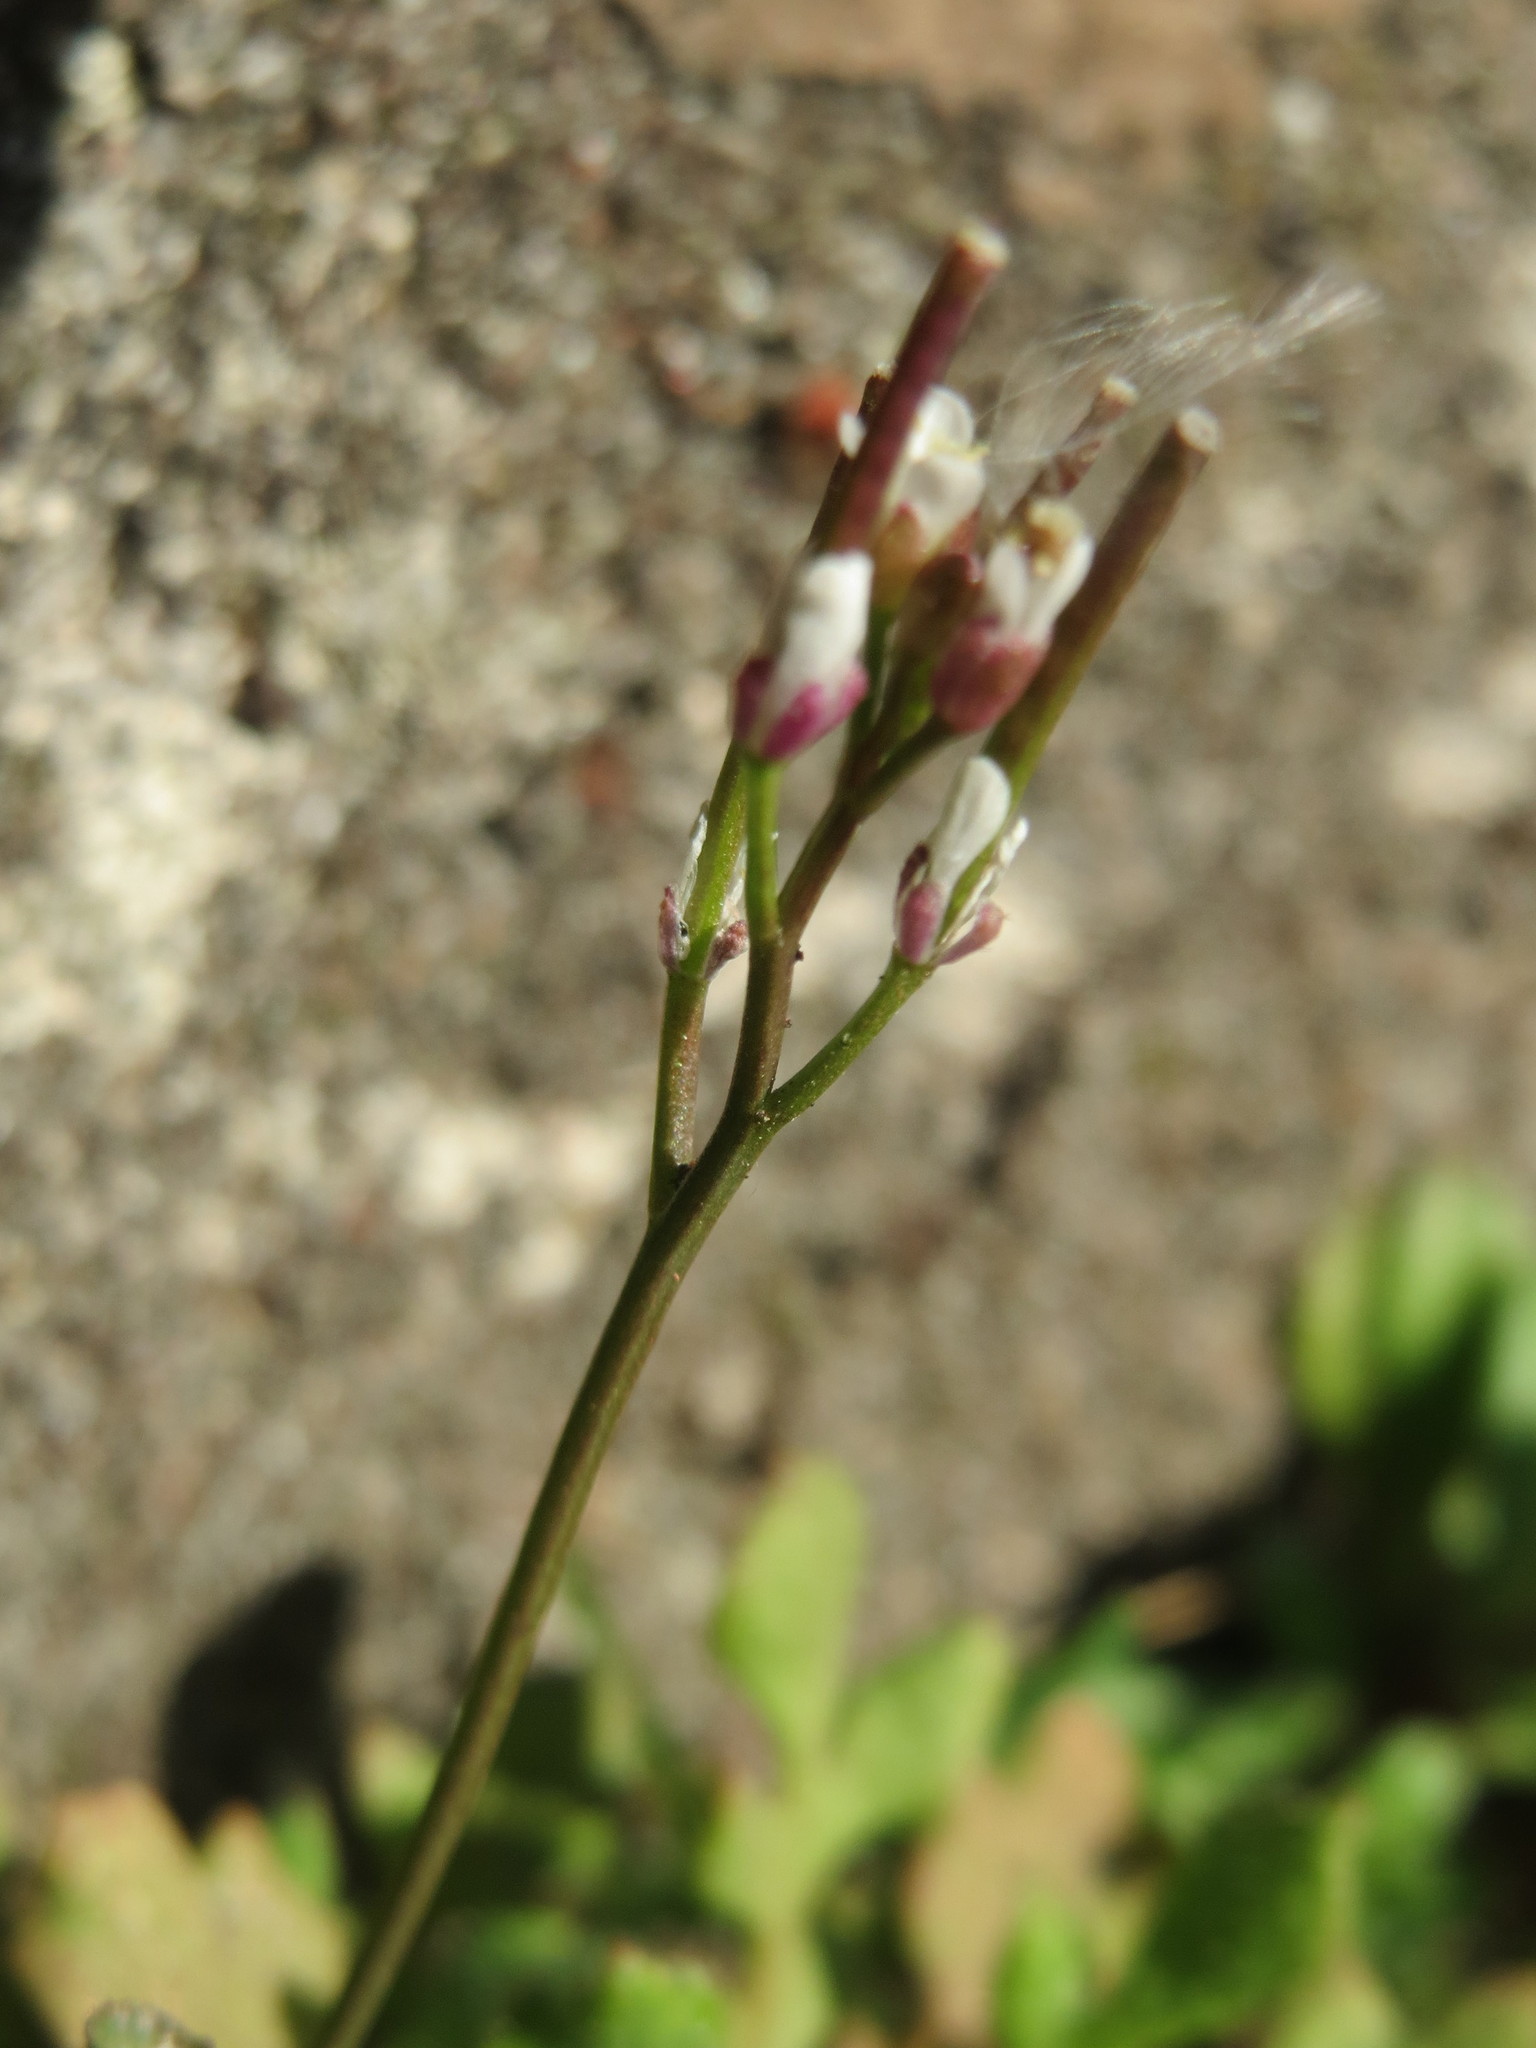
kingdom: Plantae
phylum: Tracheophyta
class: Magnoliopsida
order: Brassicales
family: Brassicaceae
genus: Cardamine
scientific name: Cardamine hirsuta
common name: Hairy bittercress
